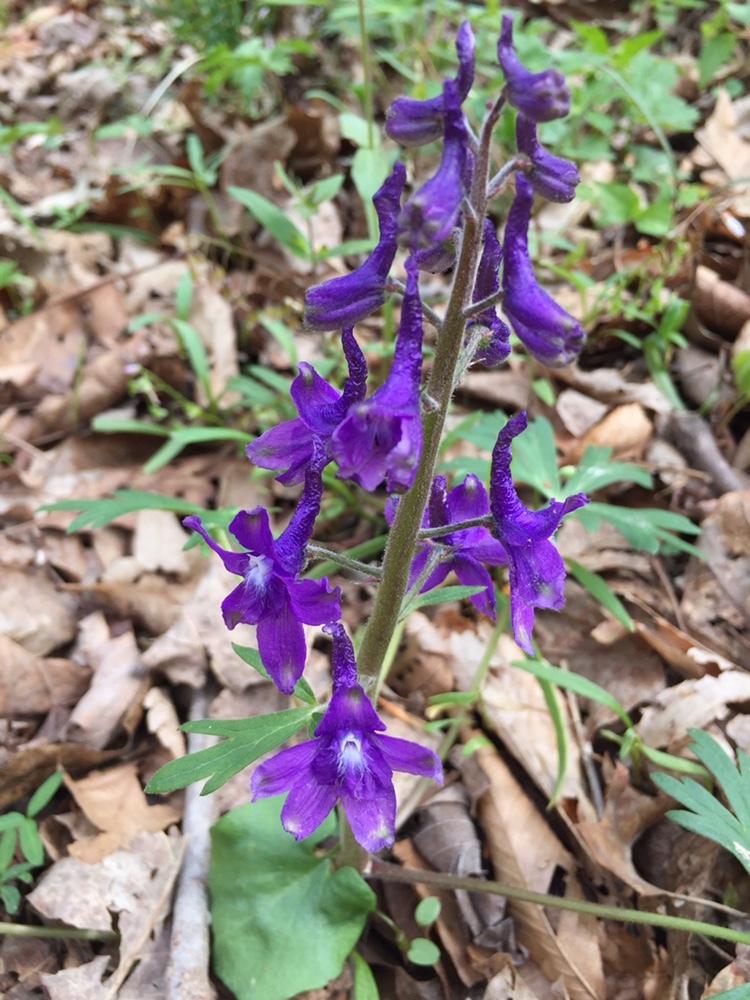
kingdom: Plantae
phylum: Tracheophyta
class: Magnoliopsida
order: Ranunculales
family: Ranunculaceae
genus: Delphinium
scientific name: Delphinium tricorne
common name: Dwarf larkspur
